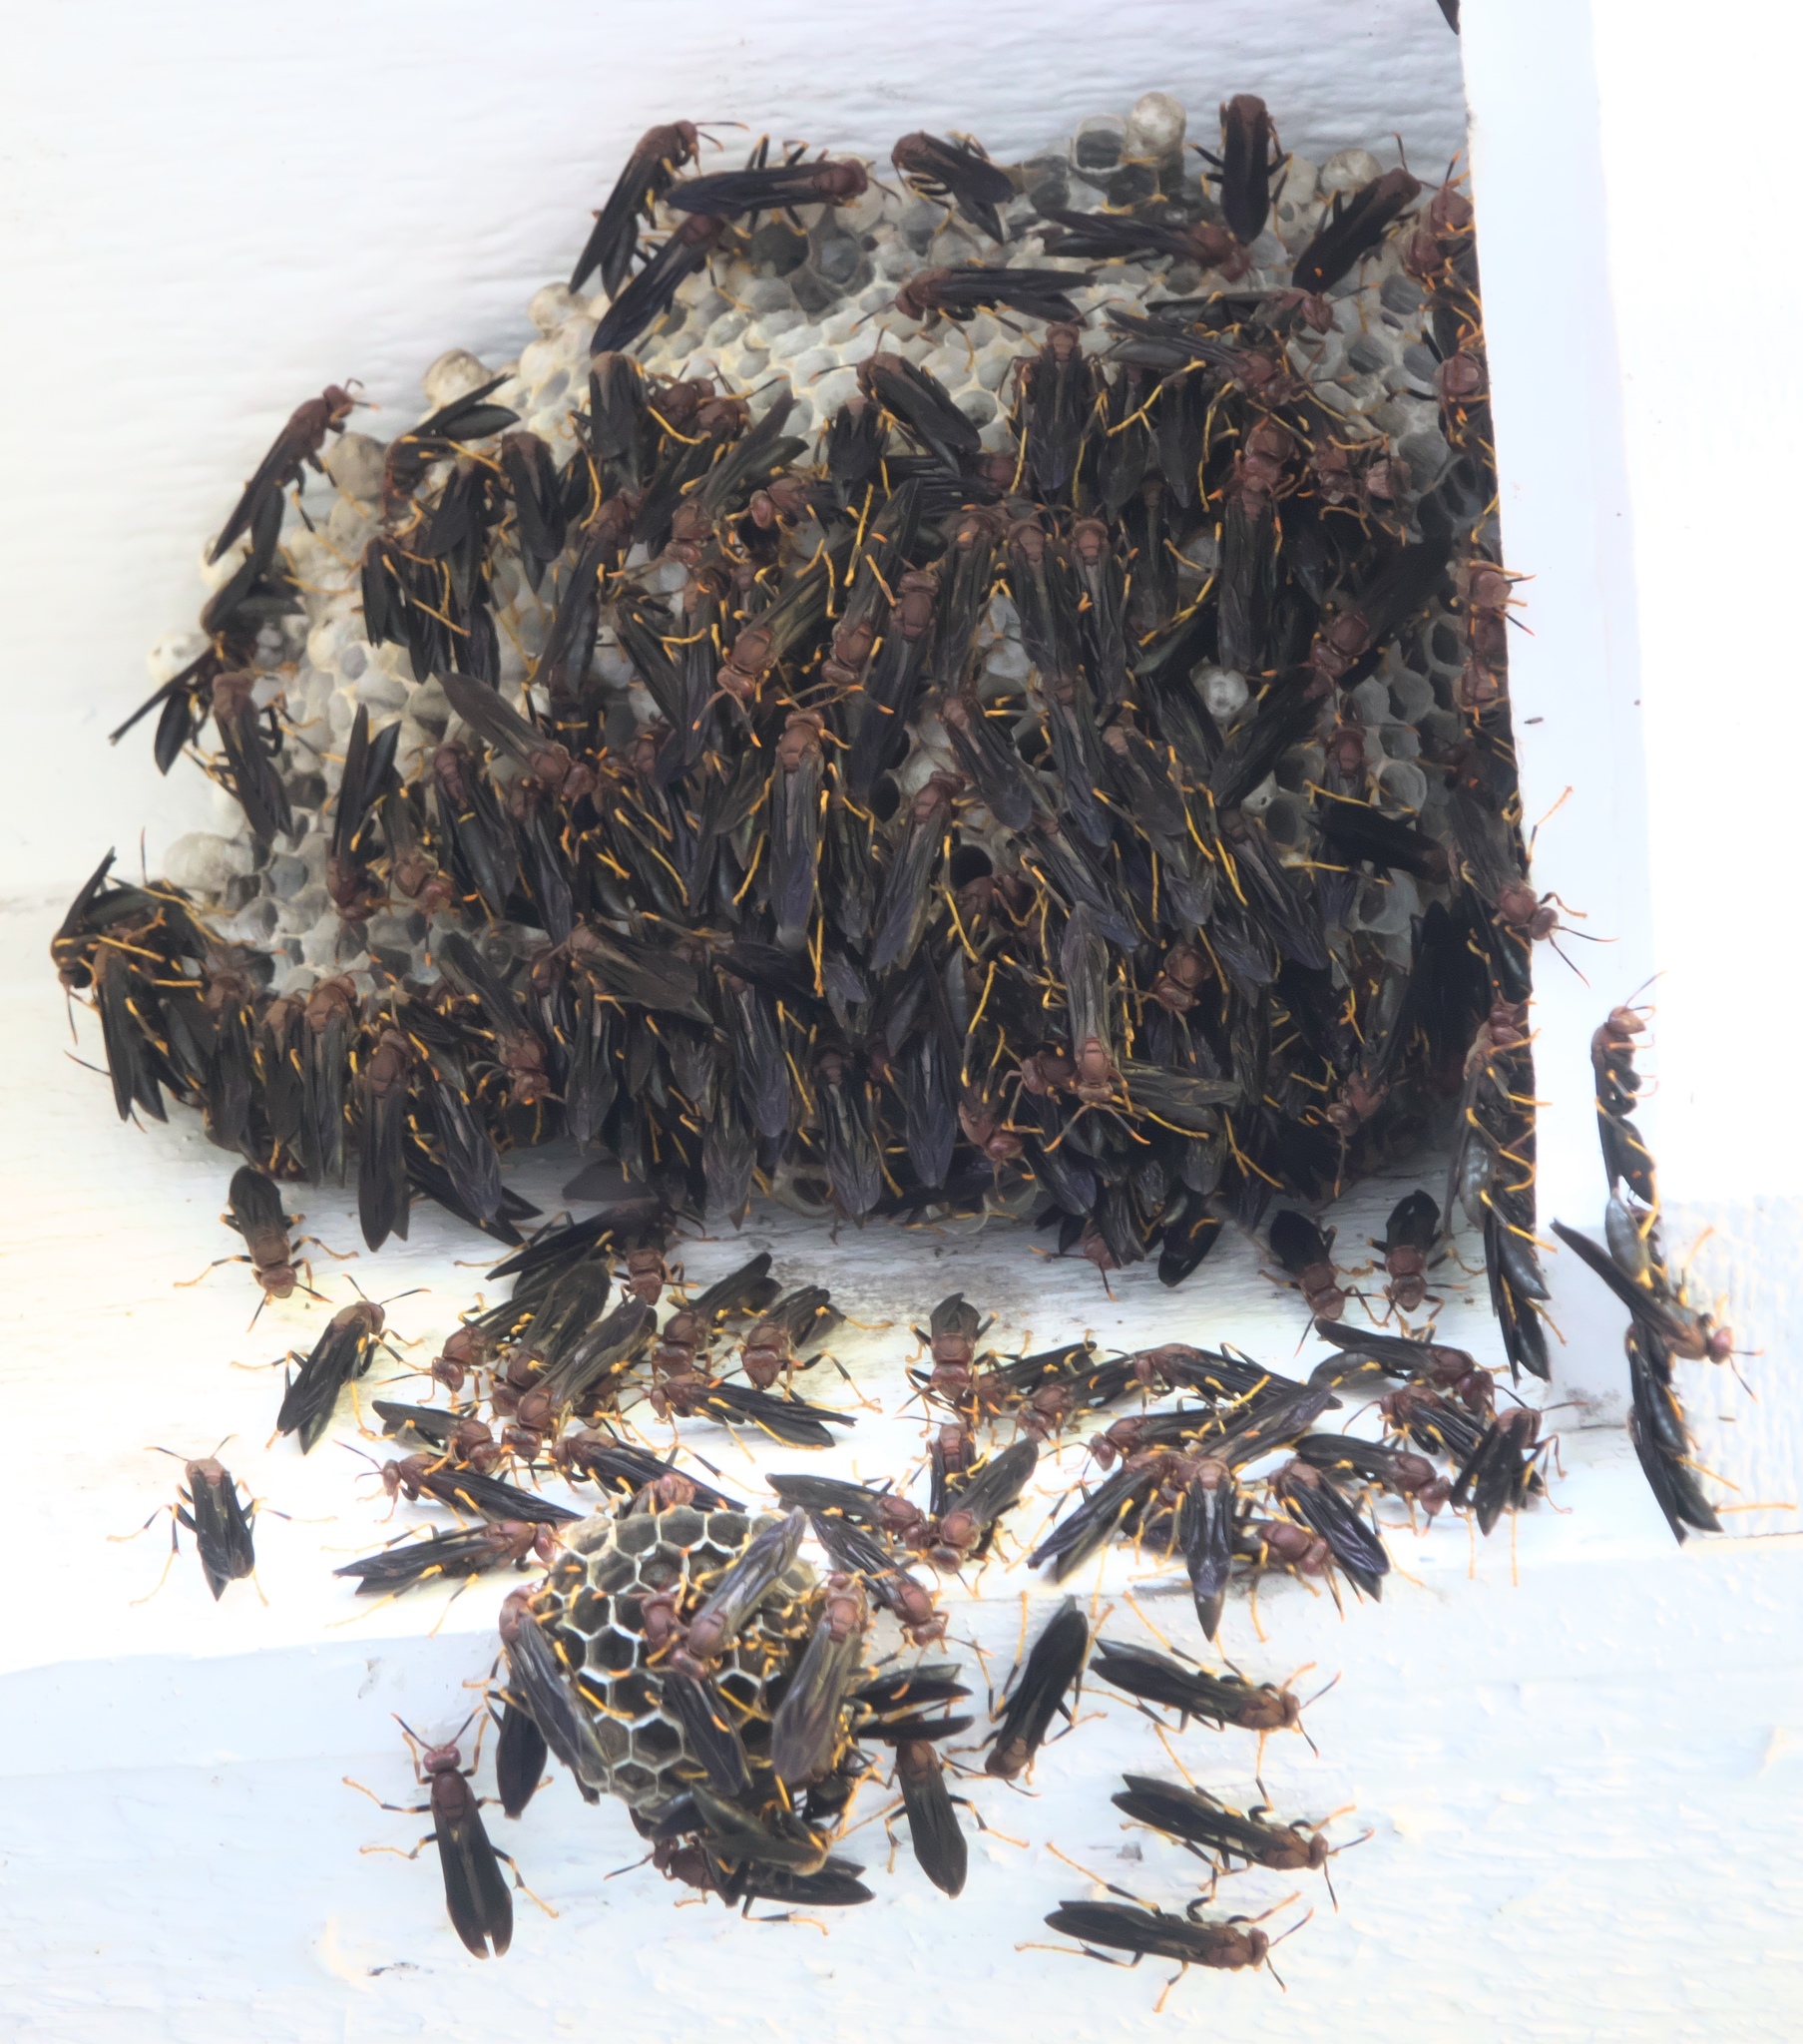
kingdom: Animalia
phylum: Arthropoda
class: Insecta
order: Hymenoptera
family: Eumenidae
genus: Polistes
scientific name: Polistes annularis
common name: Ringed paper wasp
